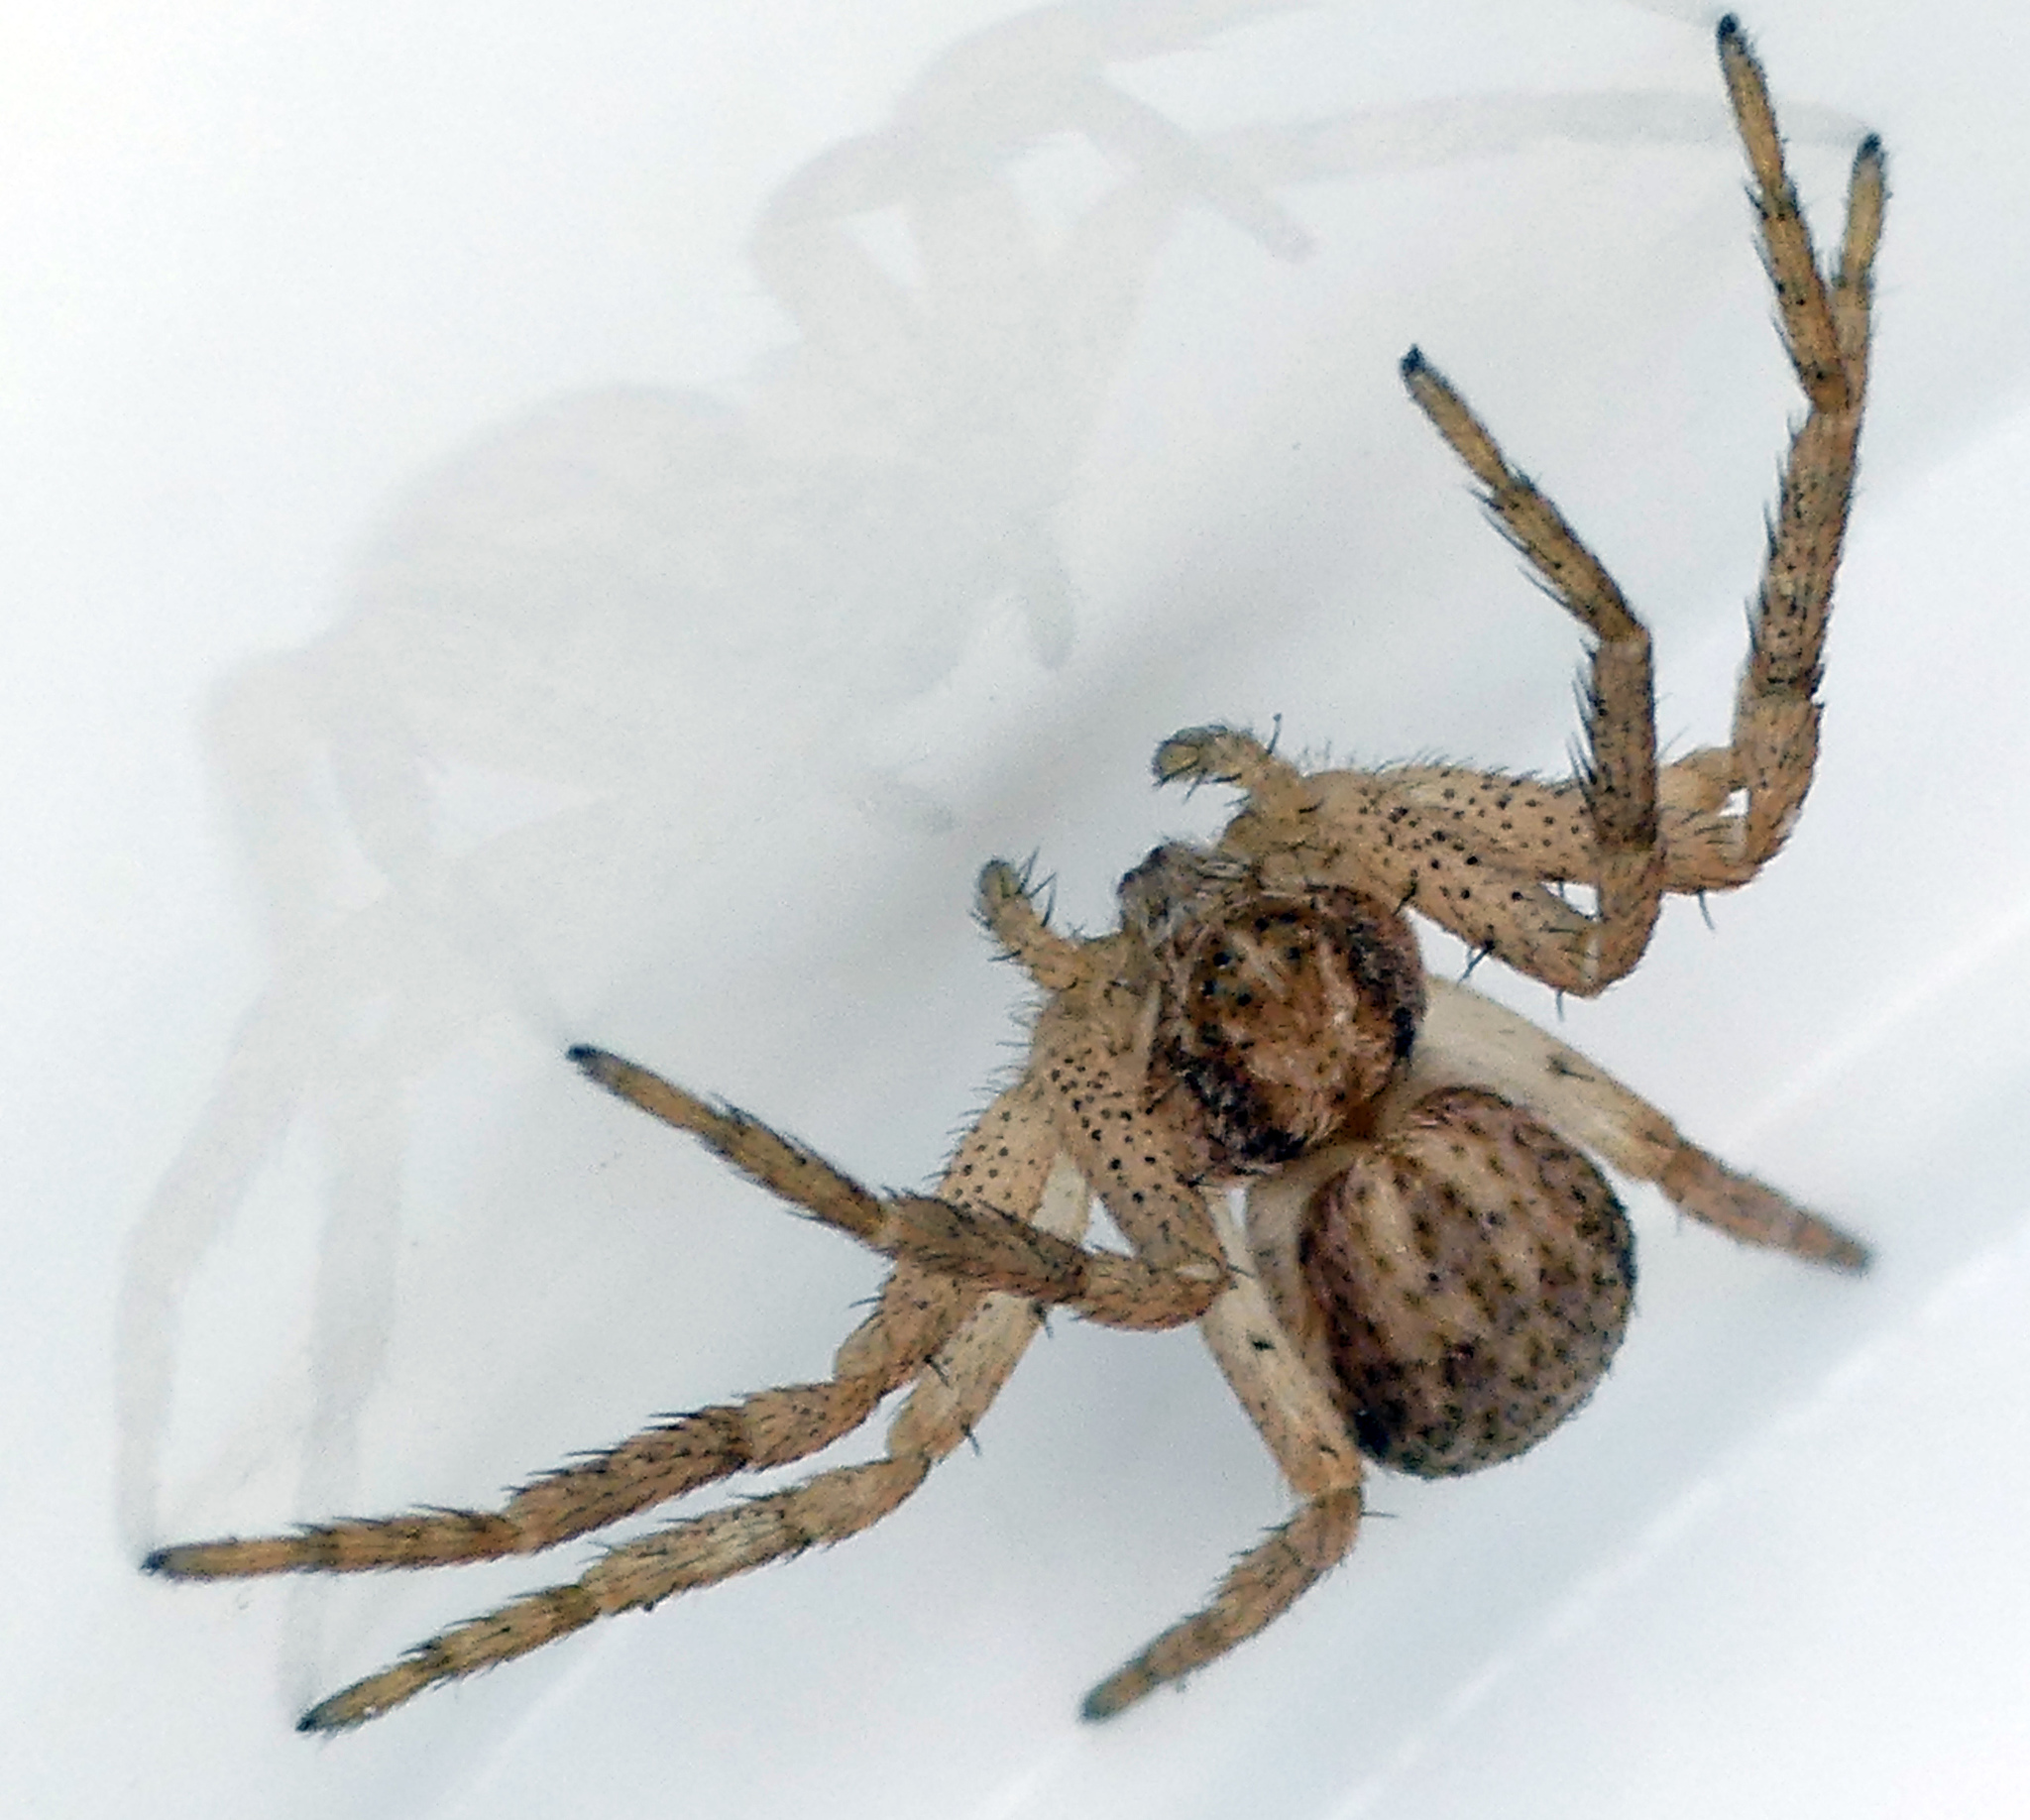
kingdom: Animalia
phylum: Arthropoda
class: Arachnida
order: Araneae
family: Philodromidae
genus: Philodromus
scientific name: Philodromus dispar
